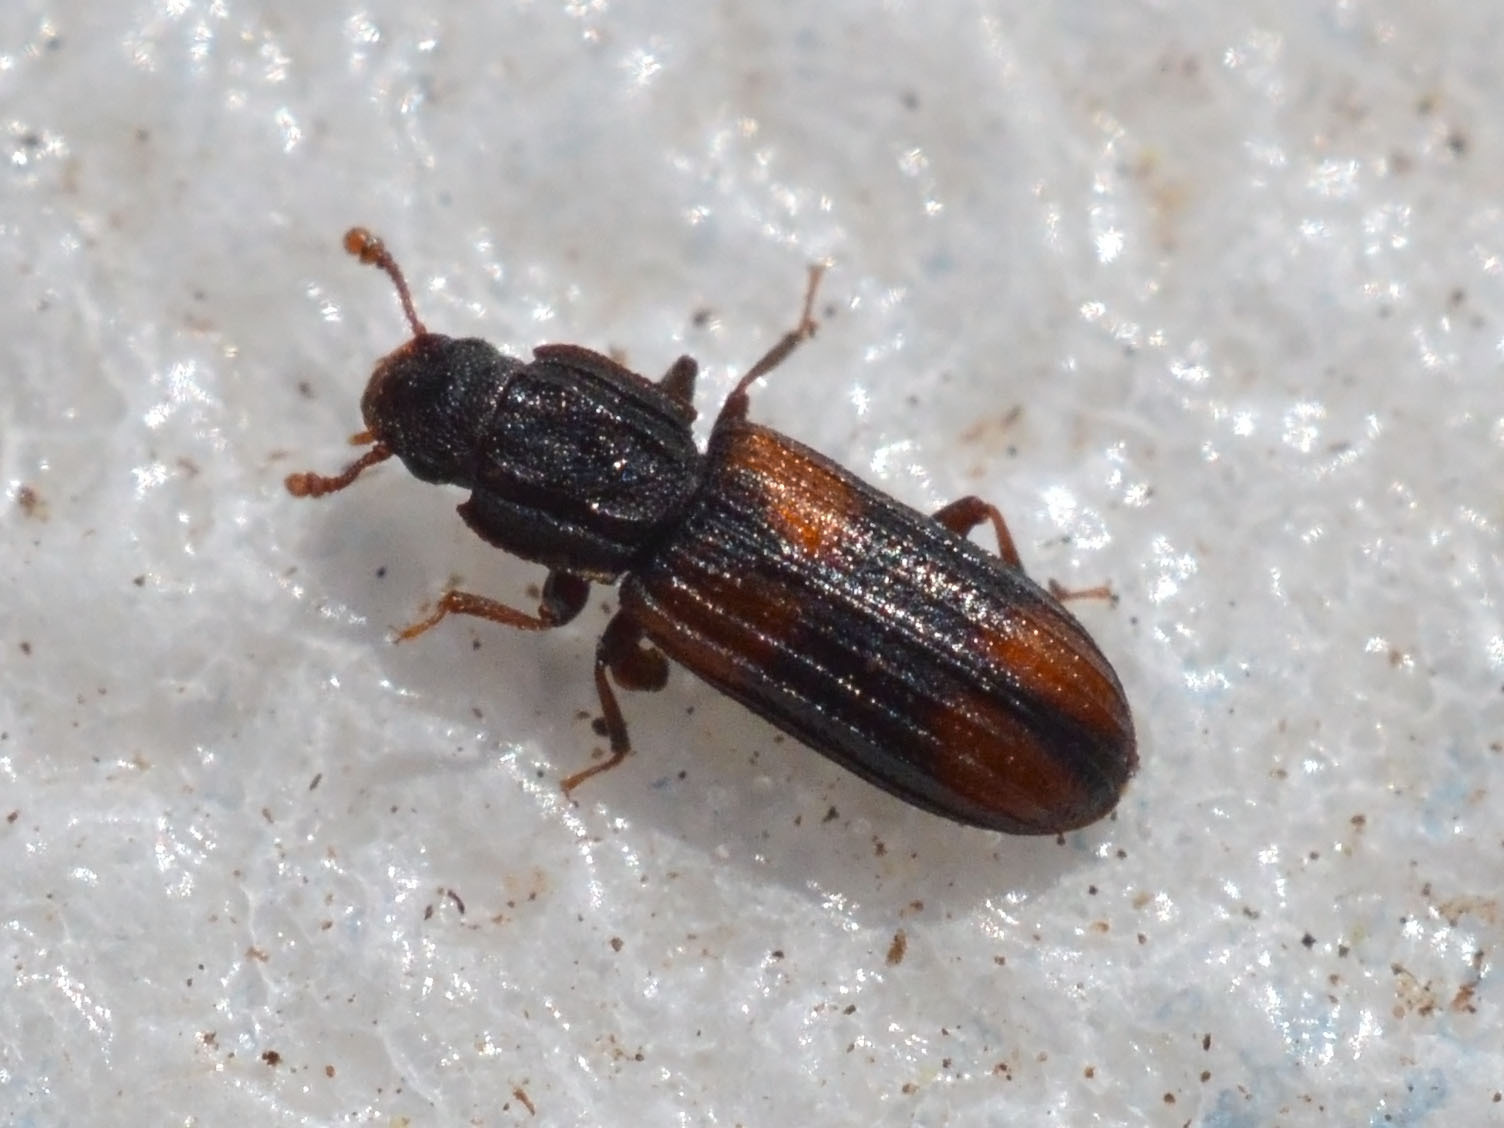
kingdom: Animalia
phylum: Arthropoda
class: Insecta
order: Coleoptera
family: Zopheridae
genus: Bitoma
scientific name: Bitoma crenata
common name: Bark beetle
